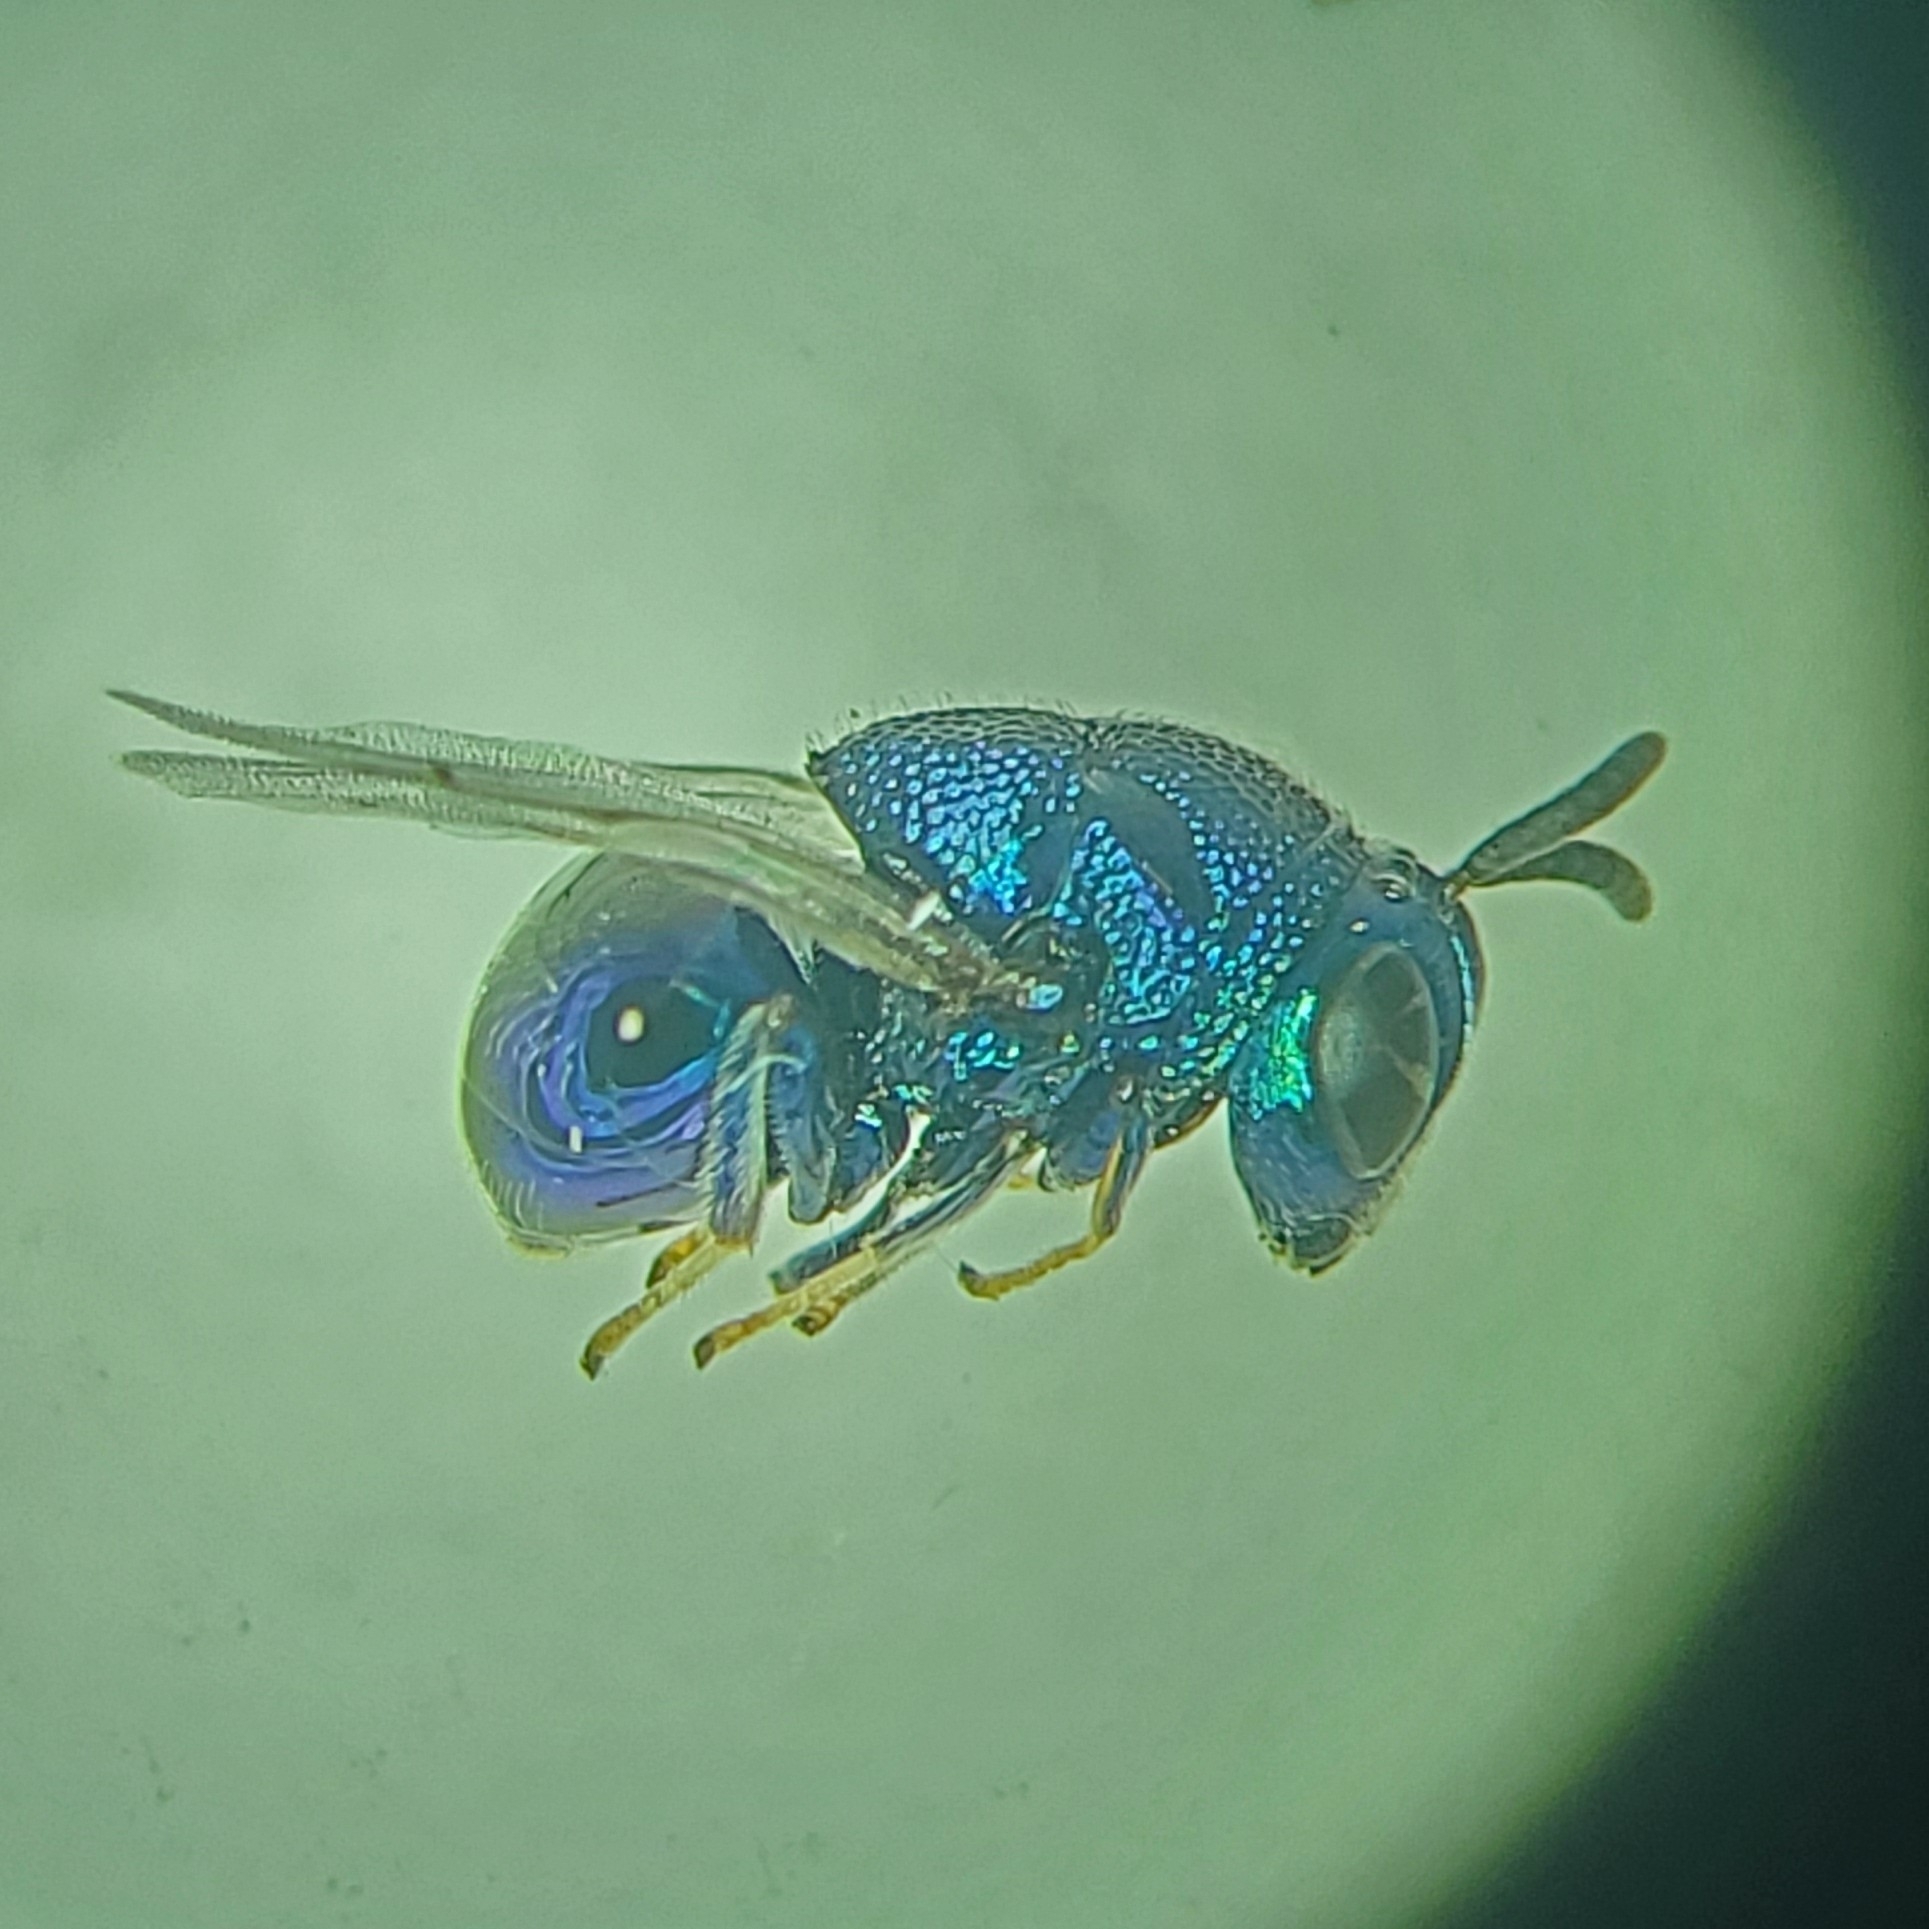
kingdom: Animalia
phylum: Arthropoda
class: Insecta
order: Hymenoptera
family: Perilampidae
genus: Perilampus
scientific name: Perilampus hyalinus
